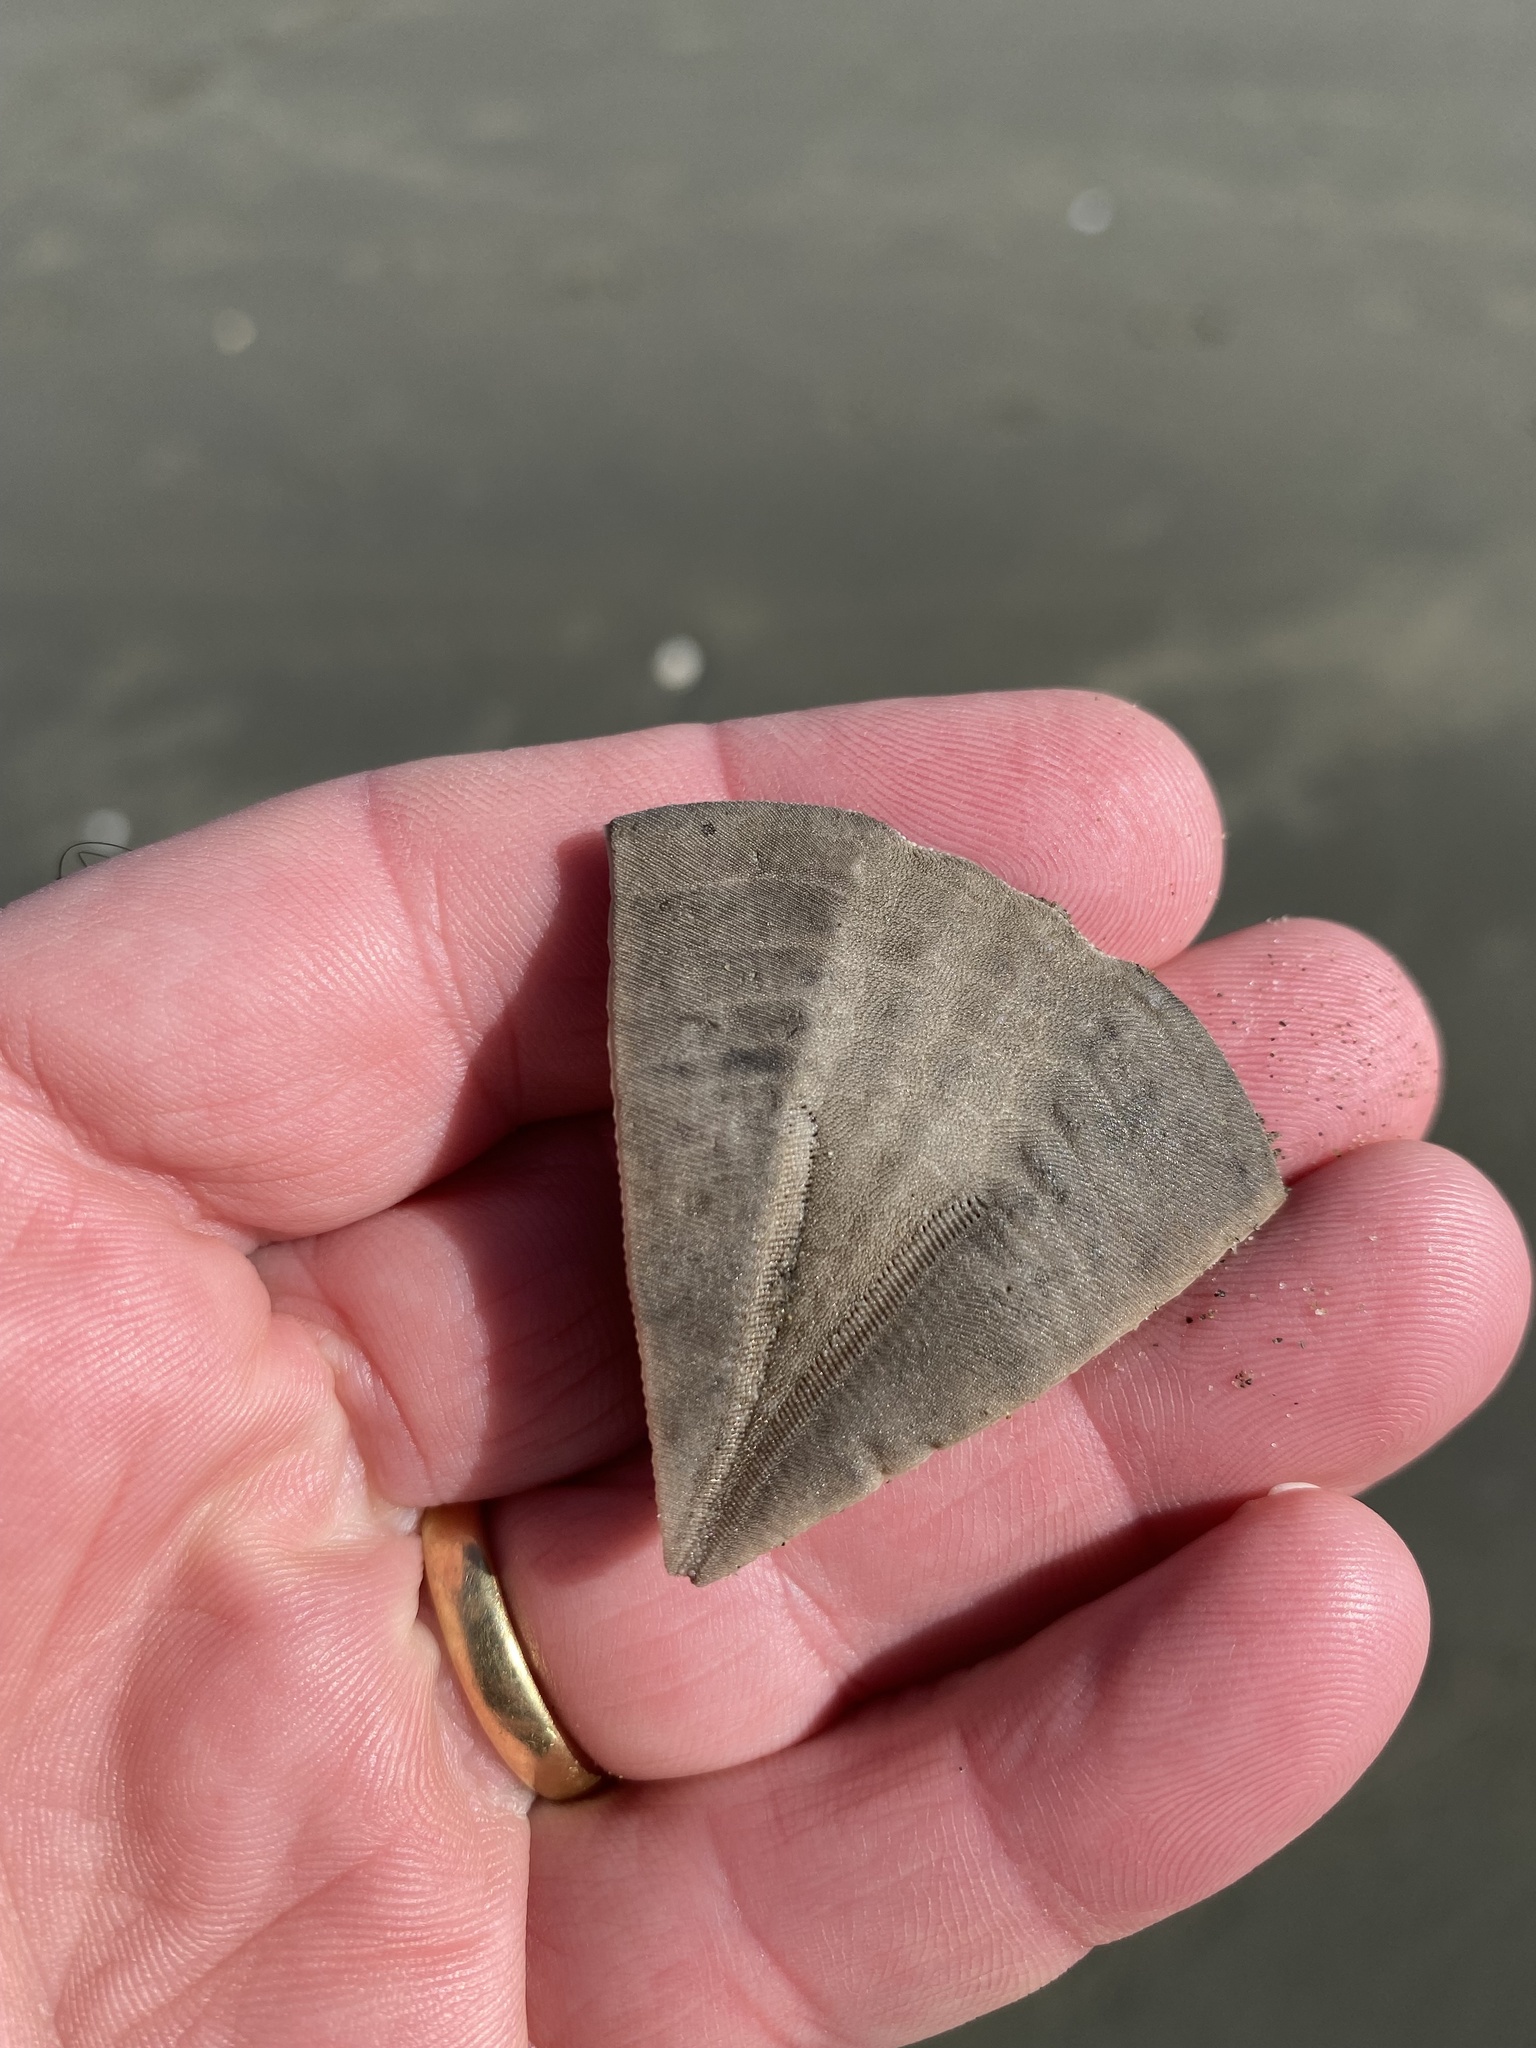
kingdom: Animalia
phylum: Echinodermata
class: Echinoidea
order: Clypeasteroida
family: Clypeasteridae
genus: Fellaster
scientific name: Fellaster zelandiae
